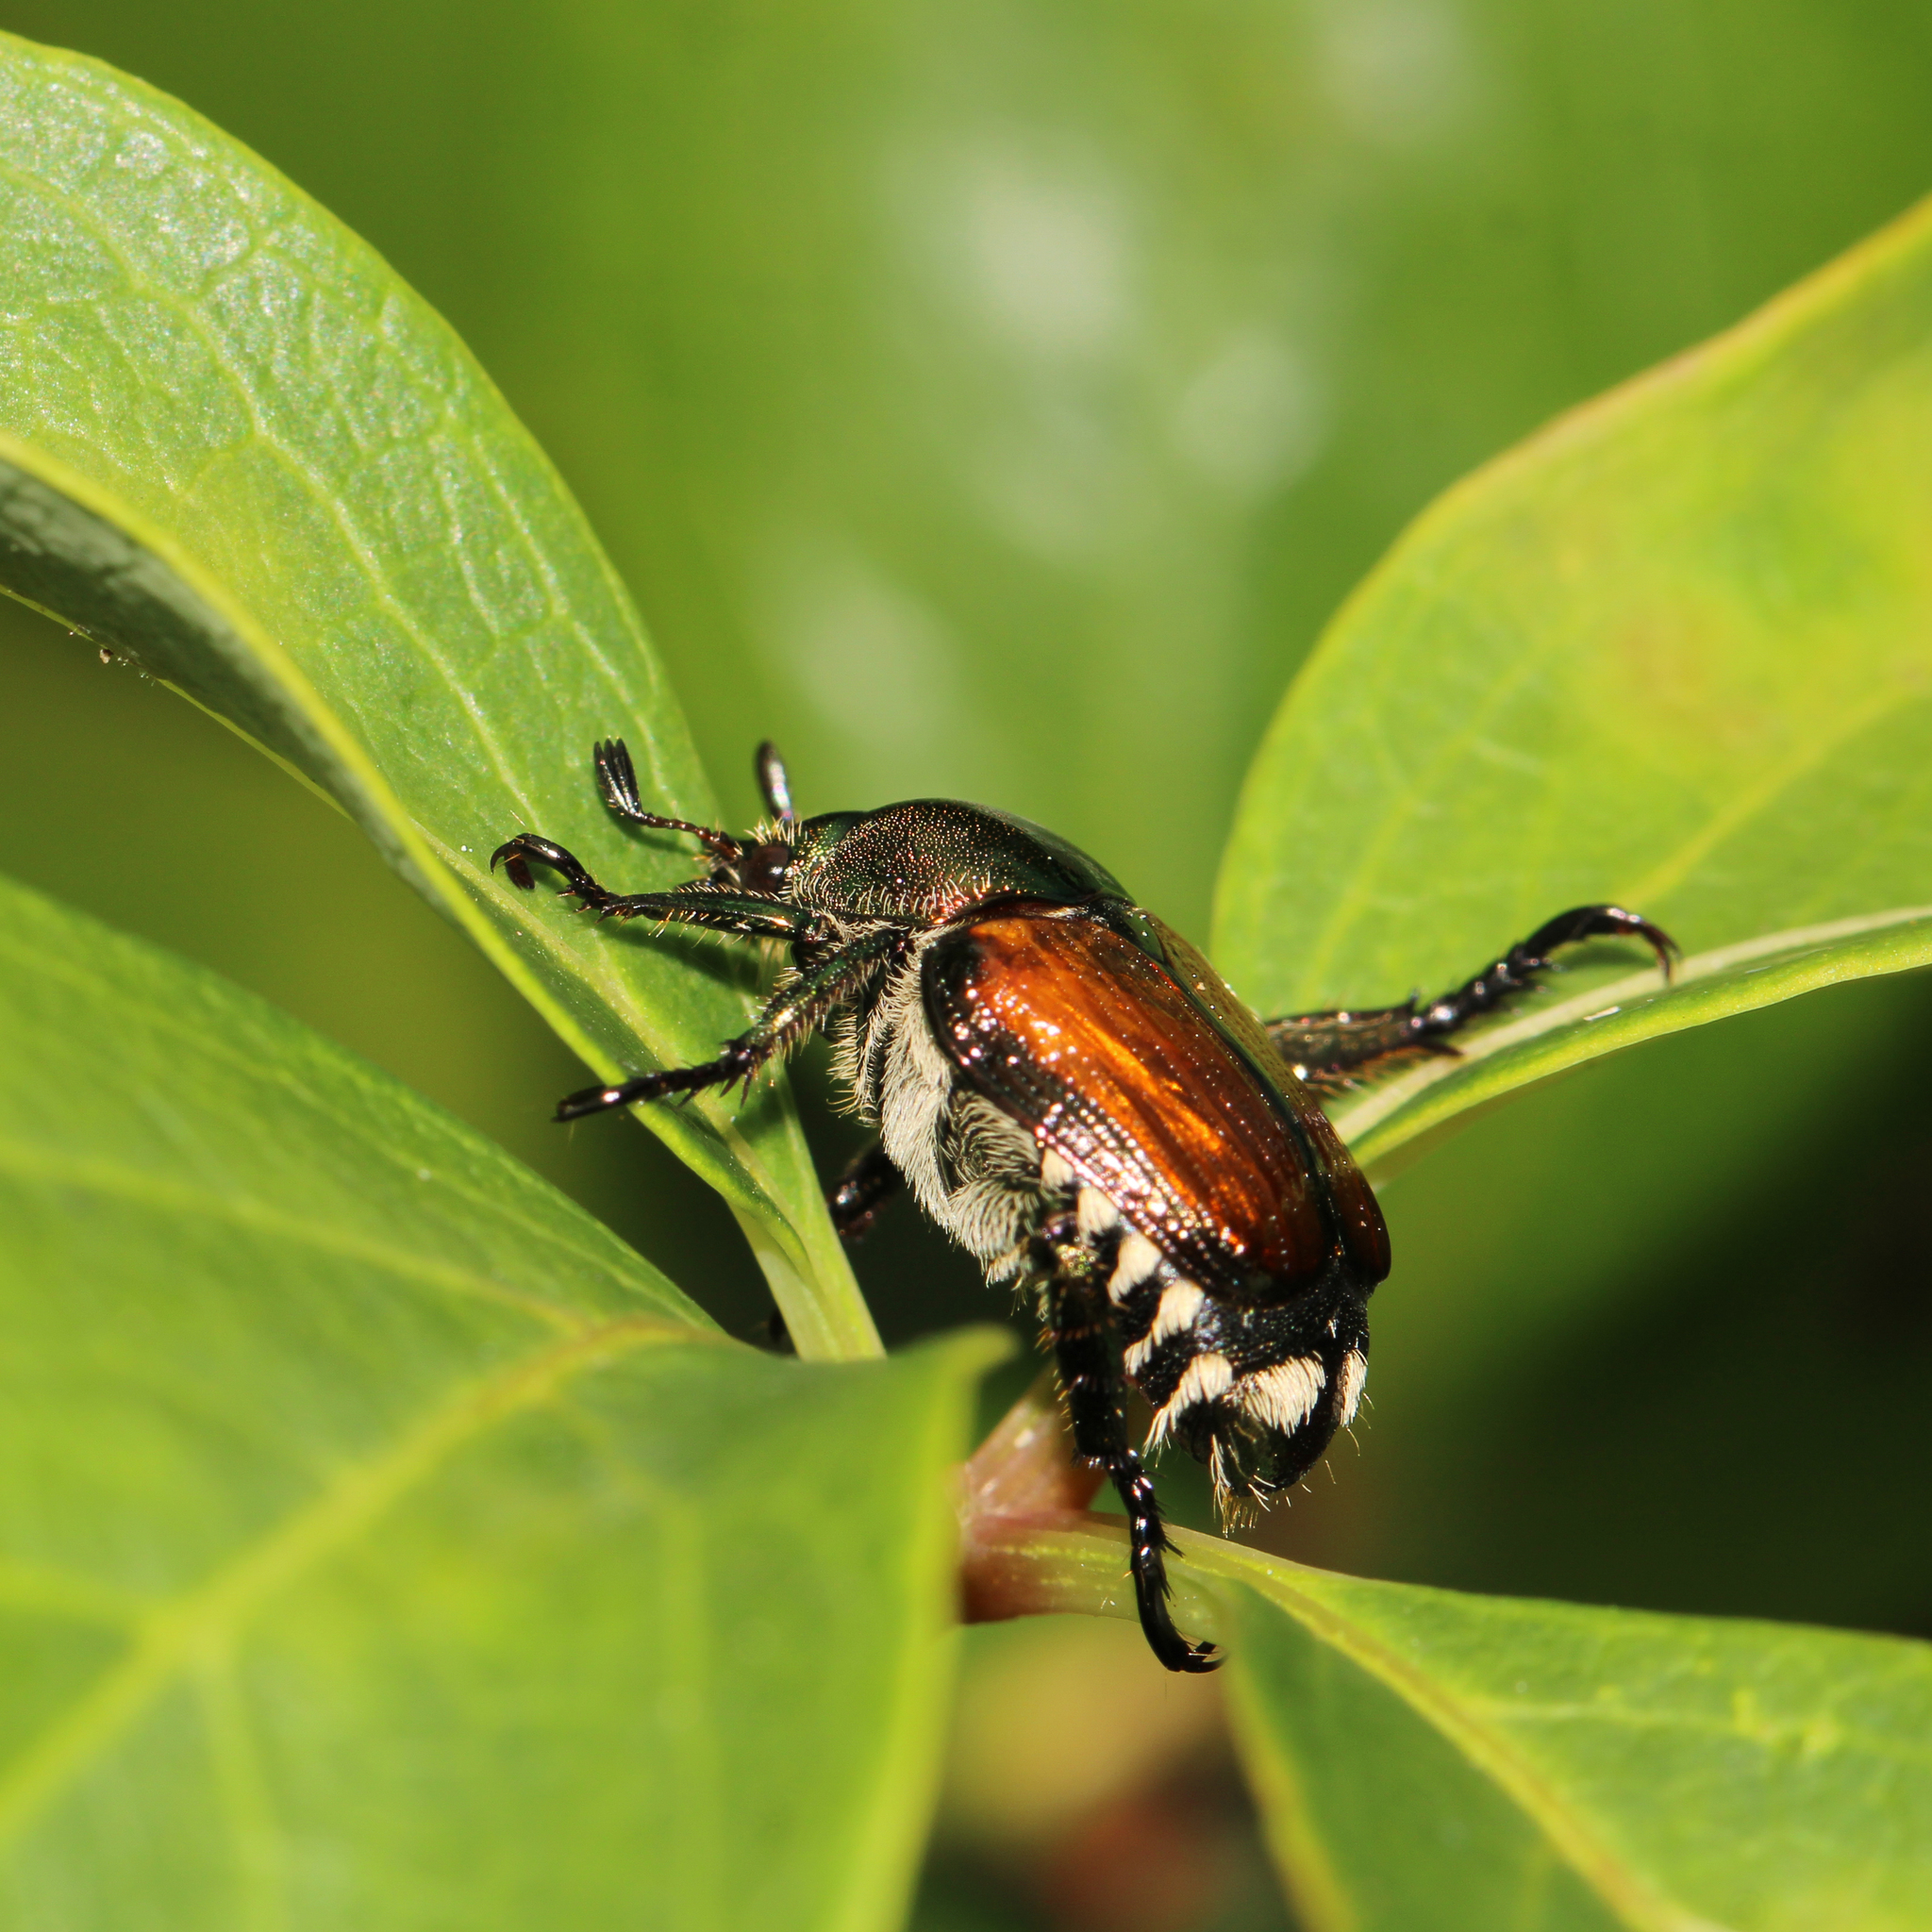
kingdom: Animalia
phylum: Arthropoda
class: Insecta
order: Coleoptera
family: Scarabaeidae
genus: Popillia
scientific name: Popillia japonica
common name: Japanese beetle
